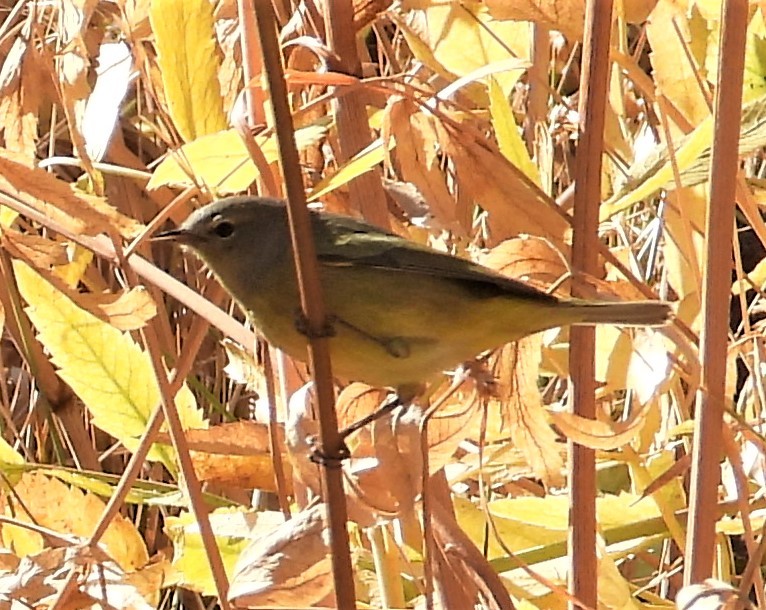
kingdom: Animalia
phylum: Chordata
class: Aves
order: Passeriformes
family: Parulidae
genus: Geothlypis
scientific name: Geothlypis tolmiei
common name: Macgillivray's warbler
